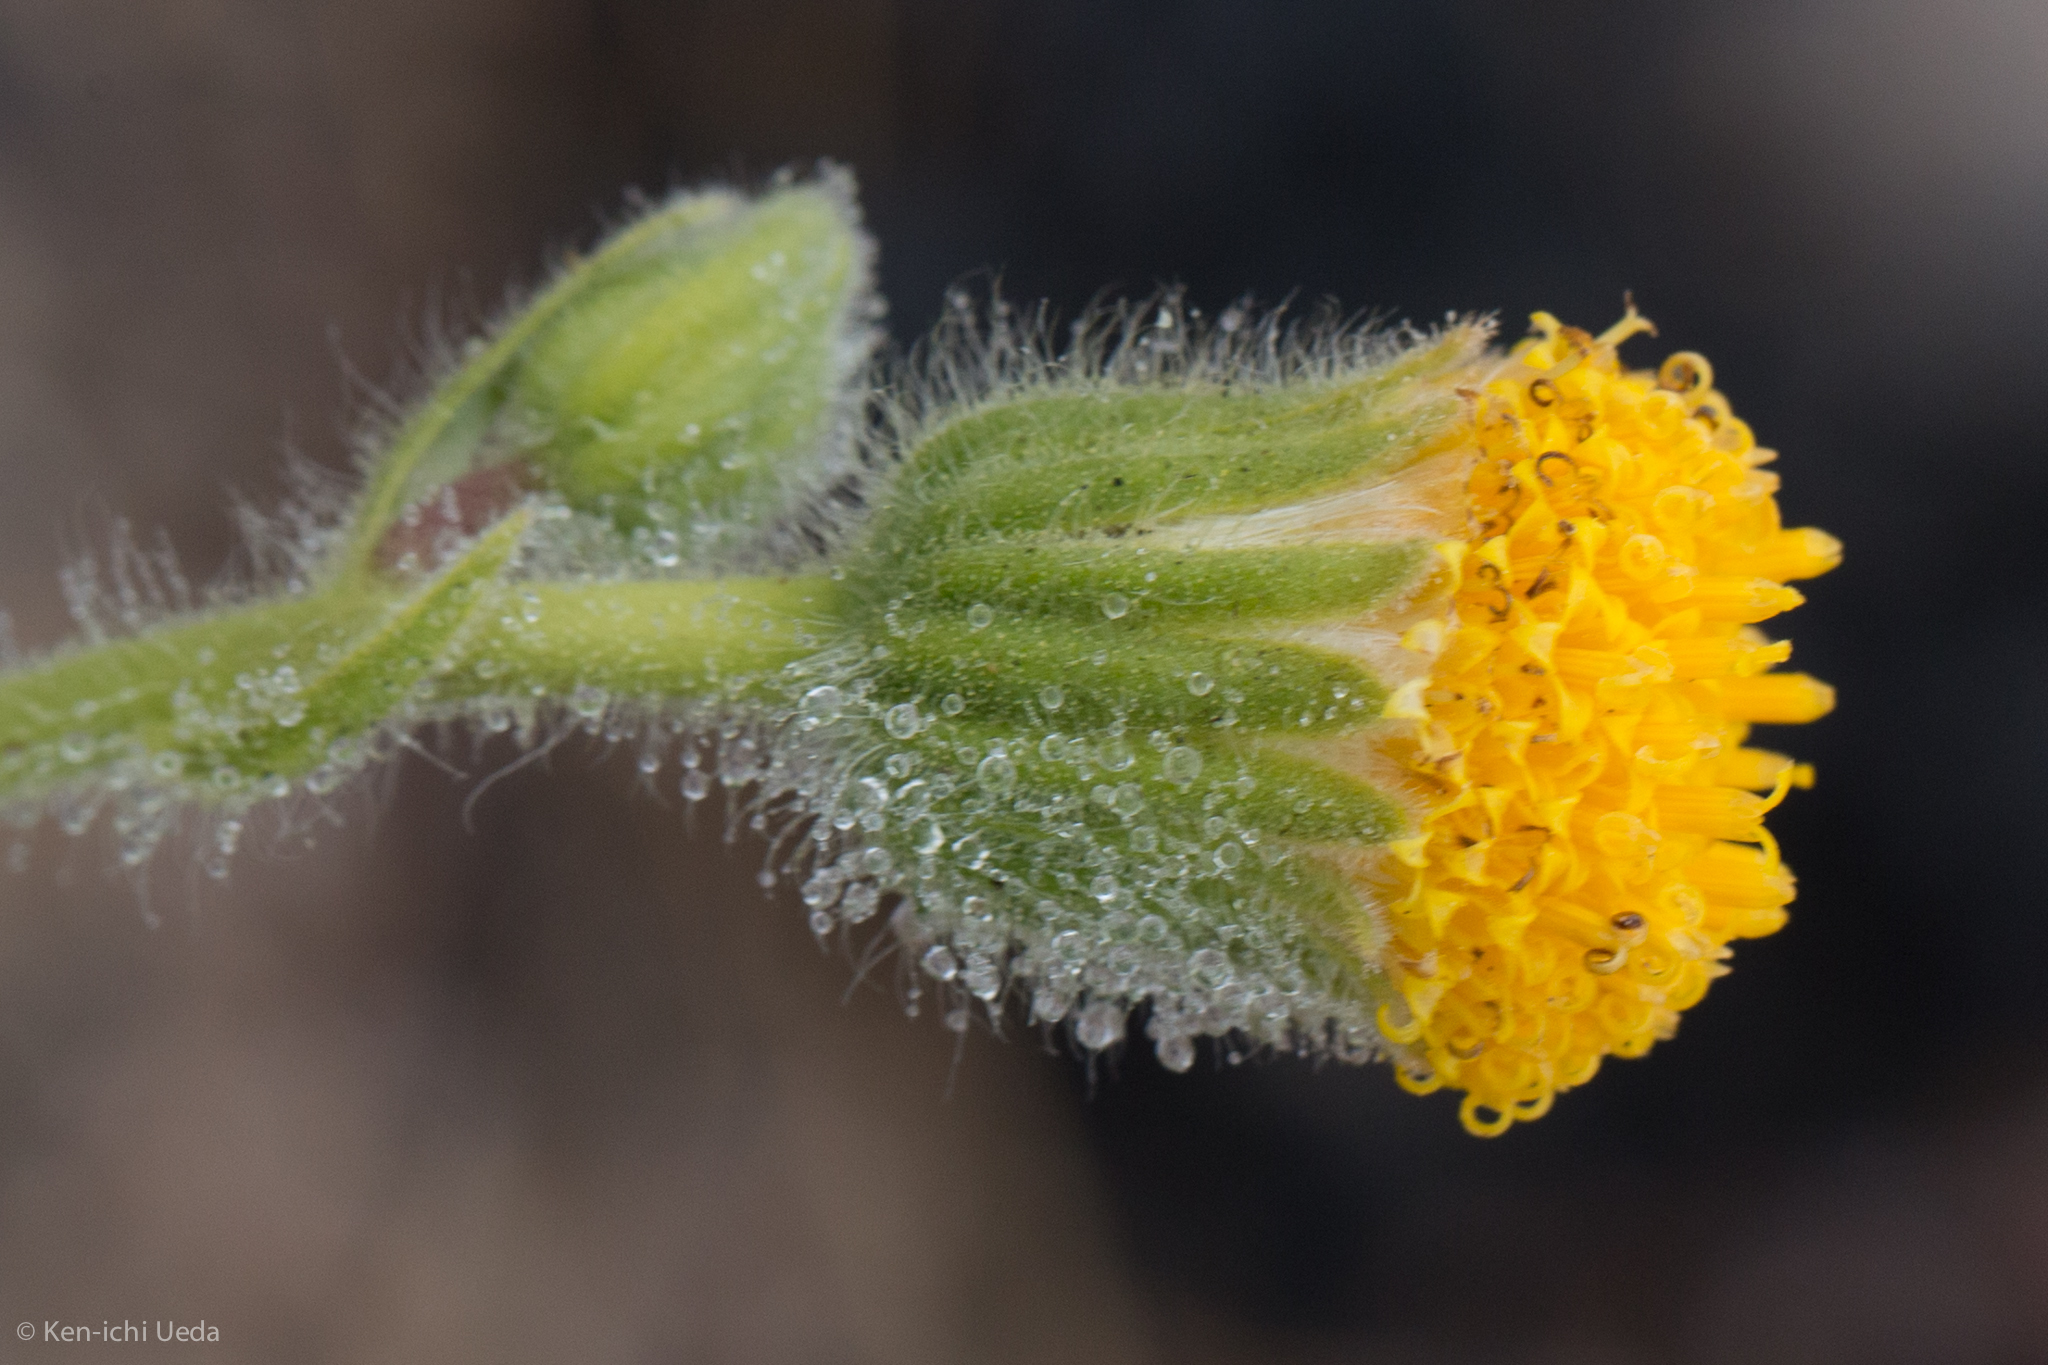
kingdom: Plantae
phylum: Tracheophyta
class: Magnoliopsida
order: Asterales
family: Asteraceae
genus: Arnica
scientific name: Arnica discoidea
